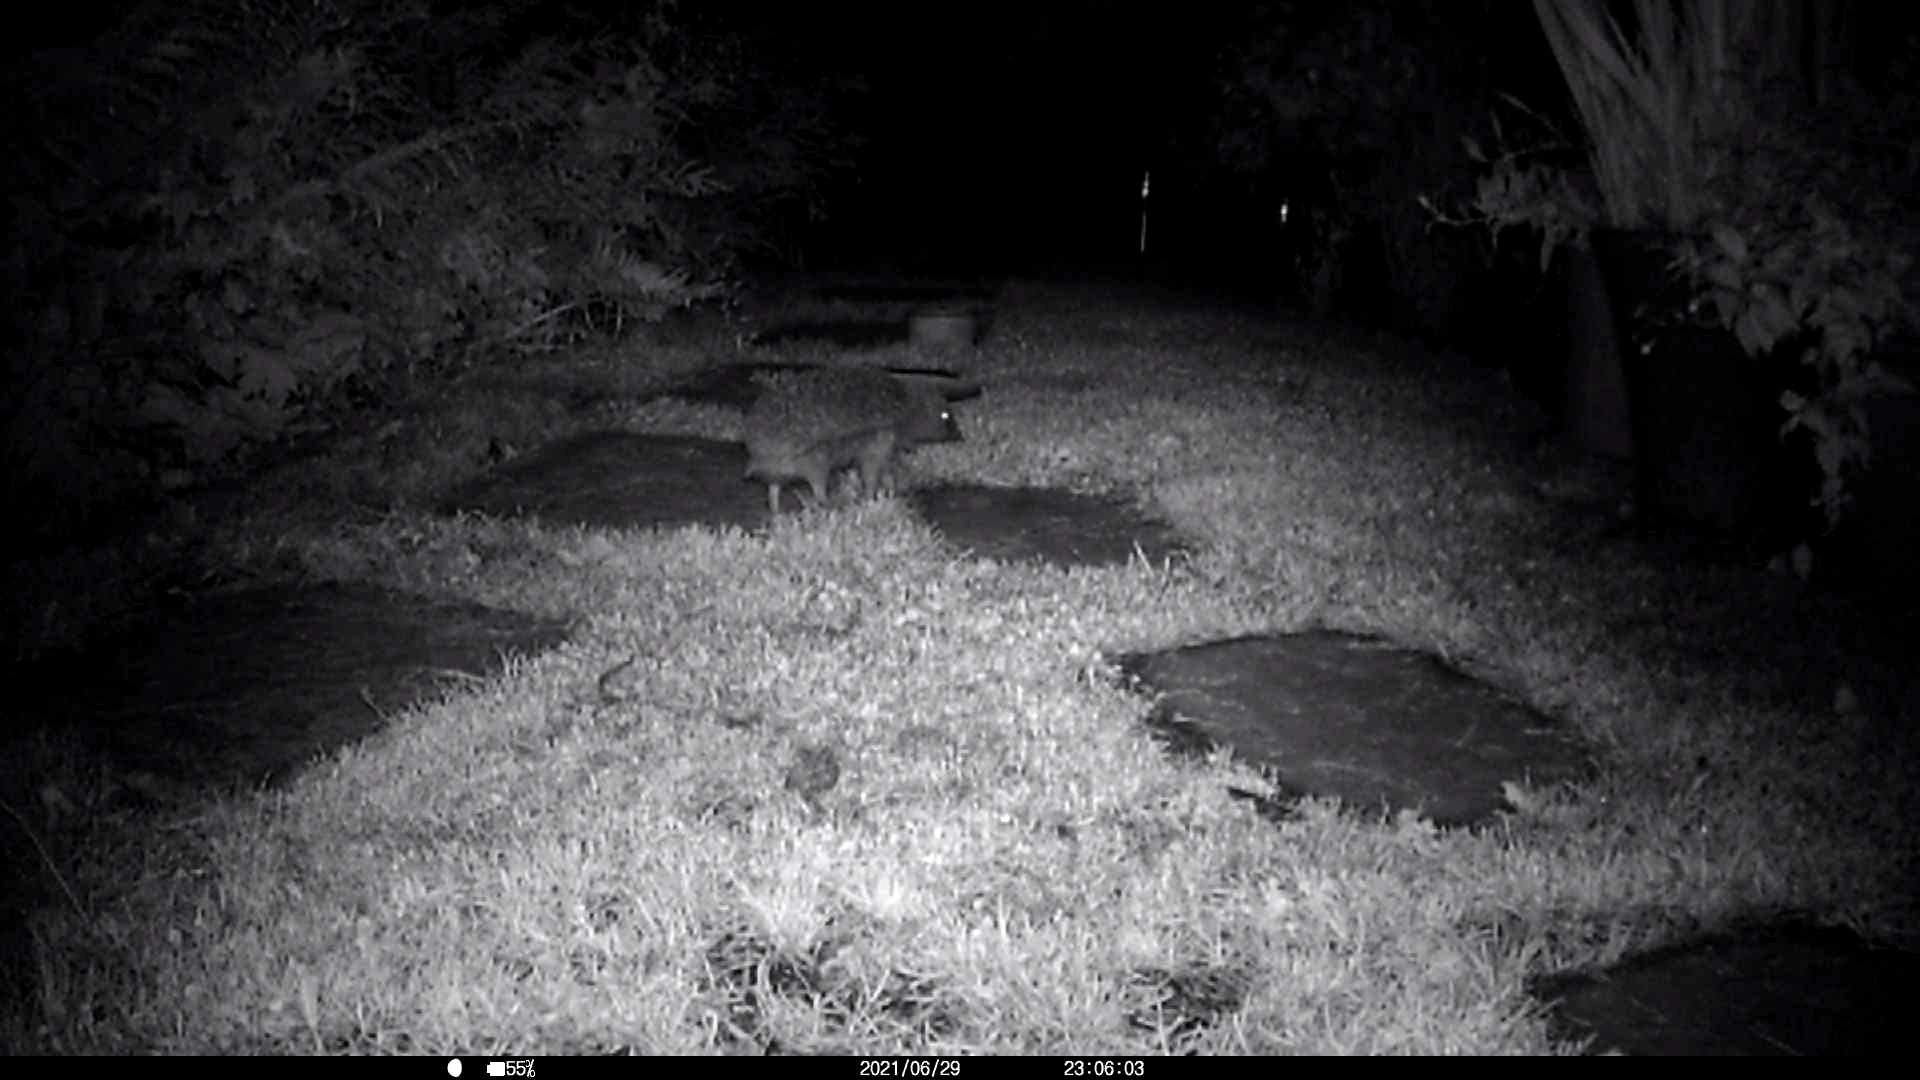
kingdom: Animalia
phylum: Chordata
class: Mammalia
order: Erinaceomorpha
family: Erinaceidae
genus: Erinaceus
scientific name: Erinaceus europaeus
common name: West european hedgehog
